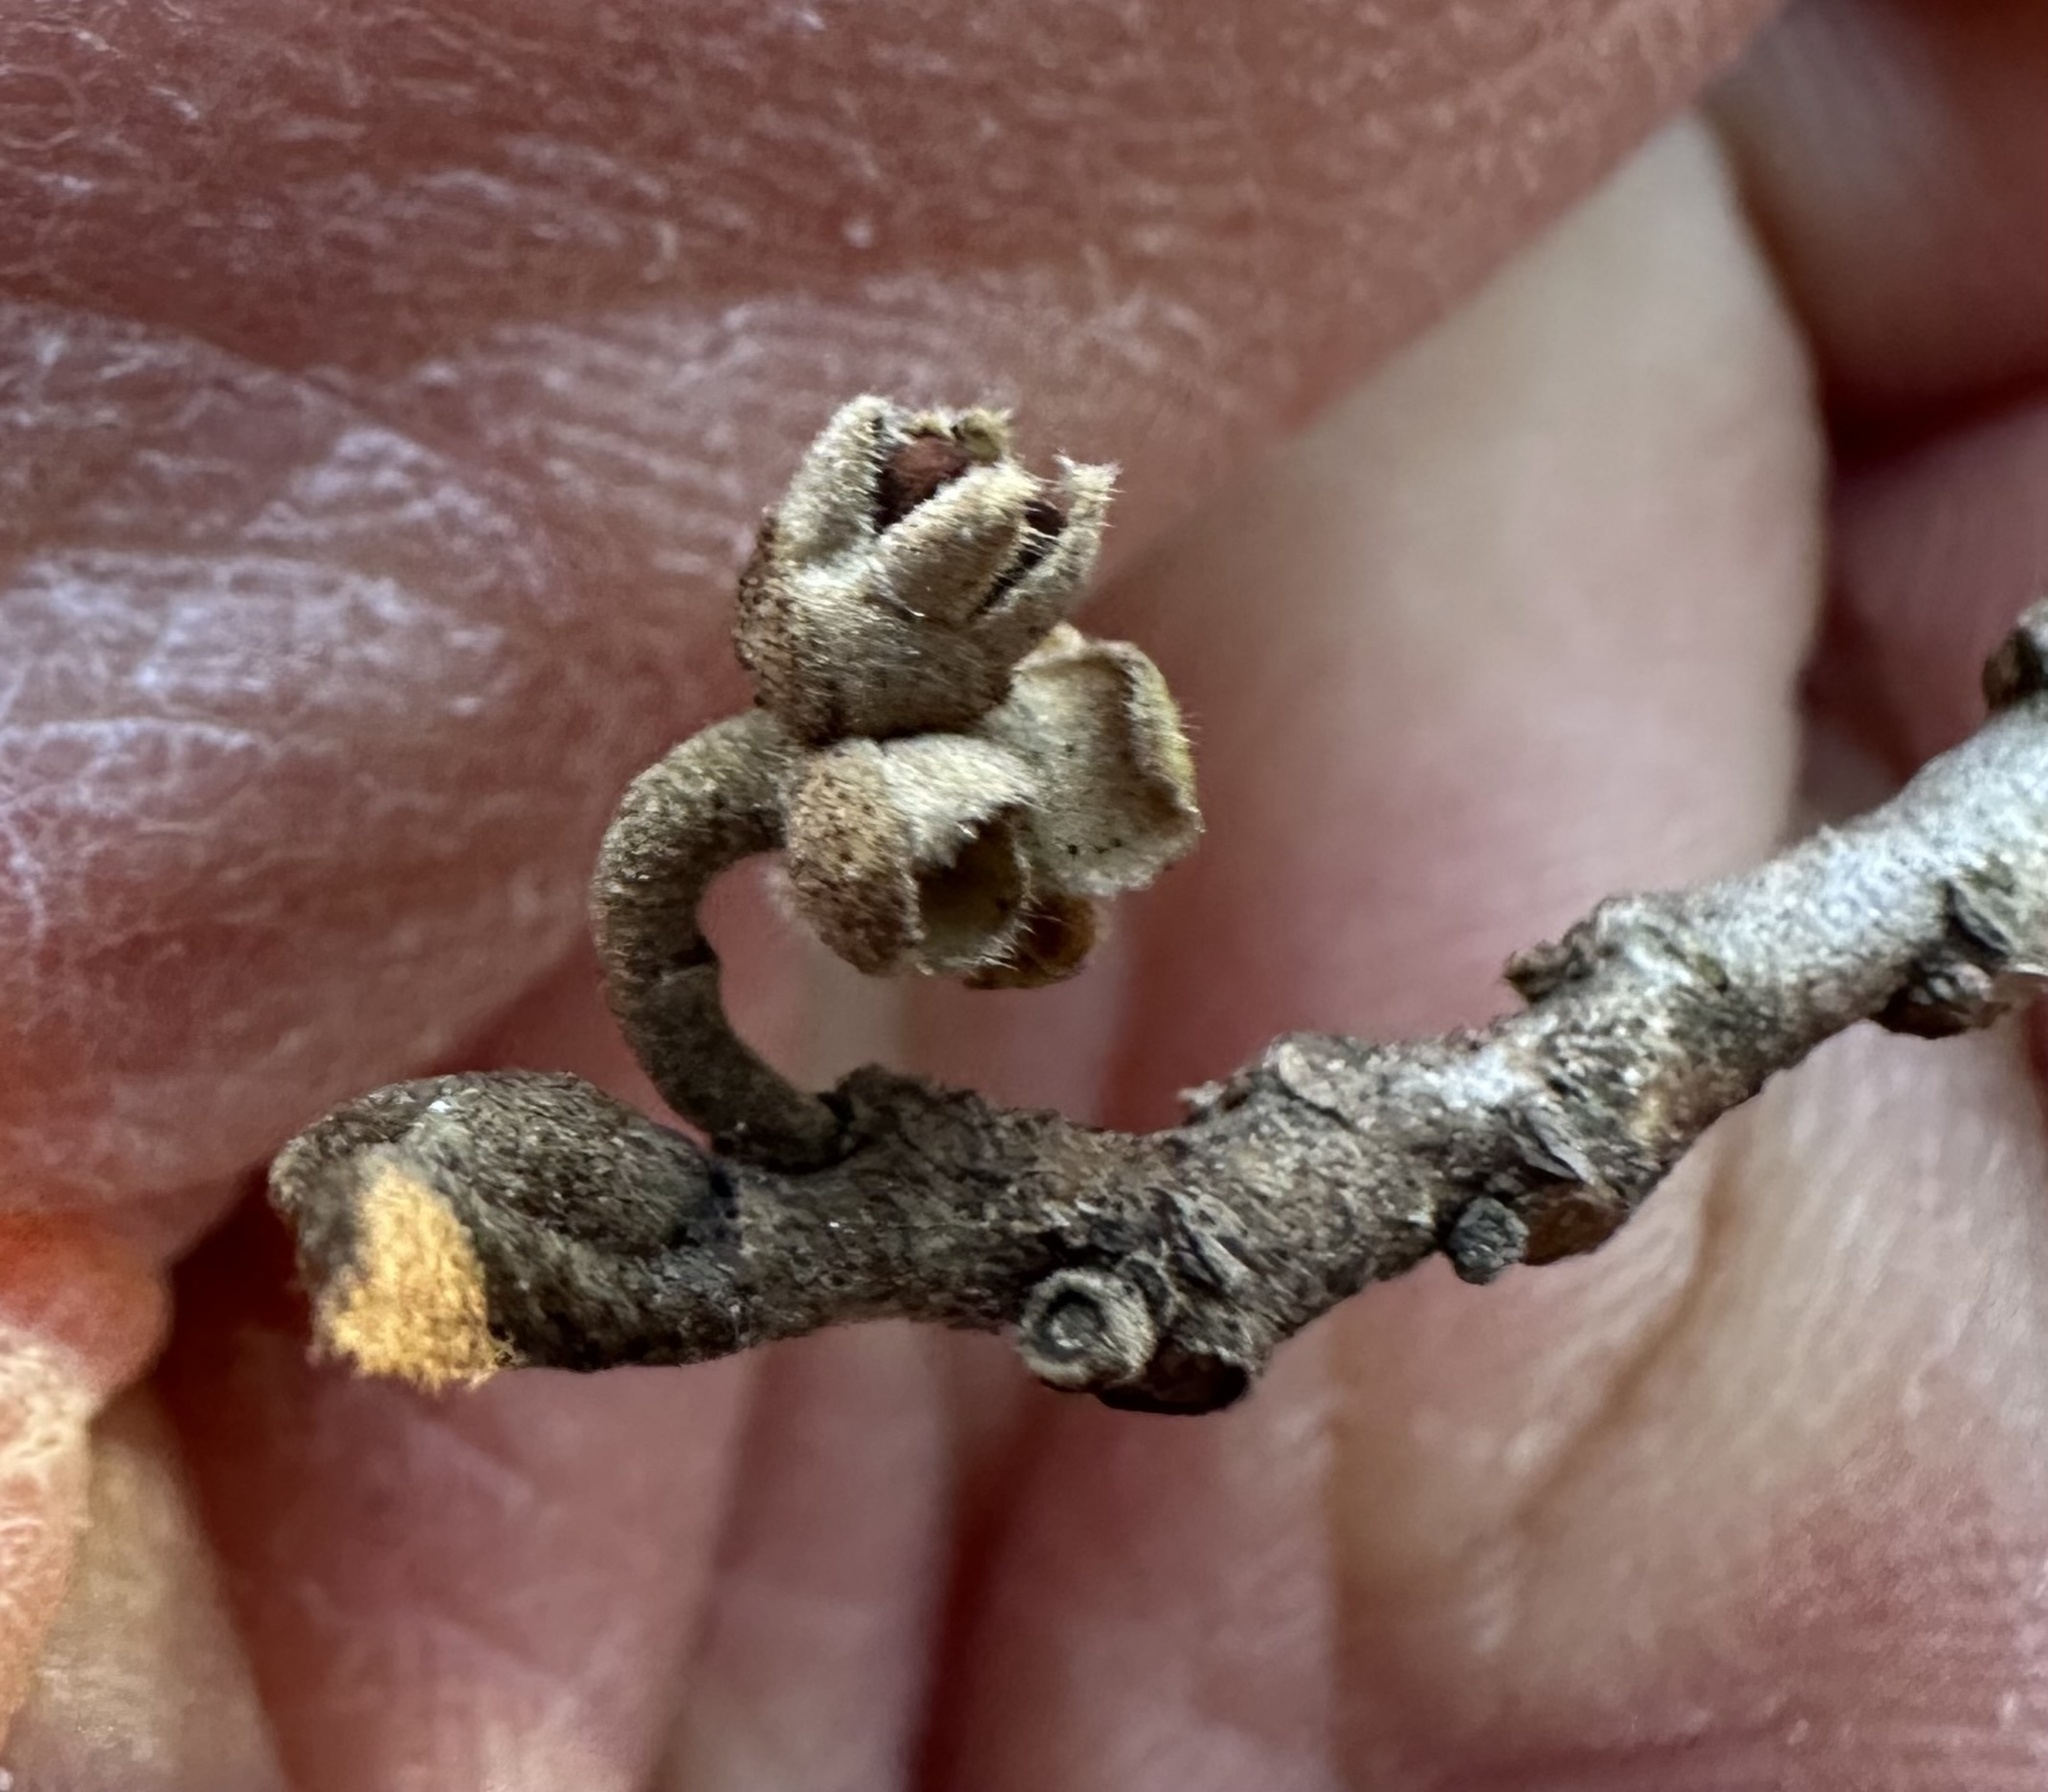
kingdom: Plantae
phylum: Tracheophyta
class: Magnoliopsida
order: Saxifragales
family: Hamamelidaceae
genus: Hamamelis
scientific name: Hamamelis virginiana
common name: Witch-hazel
